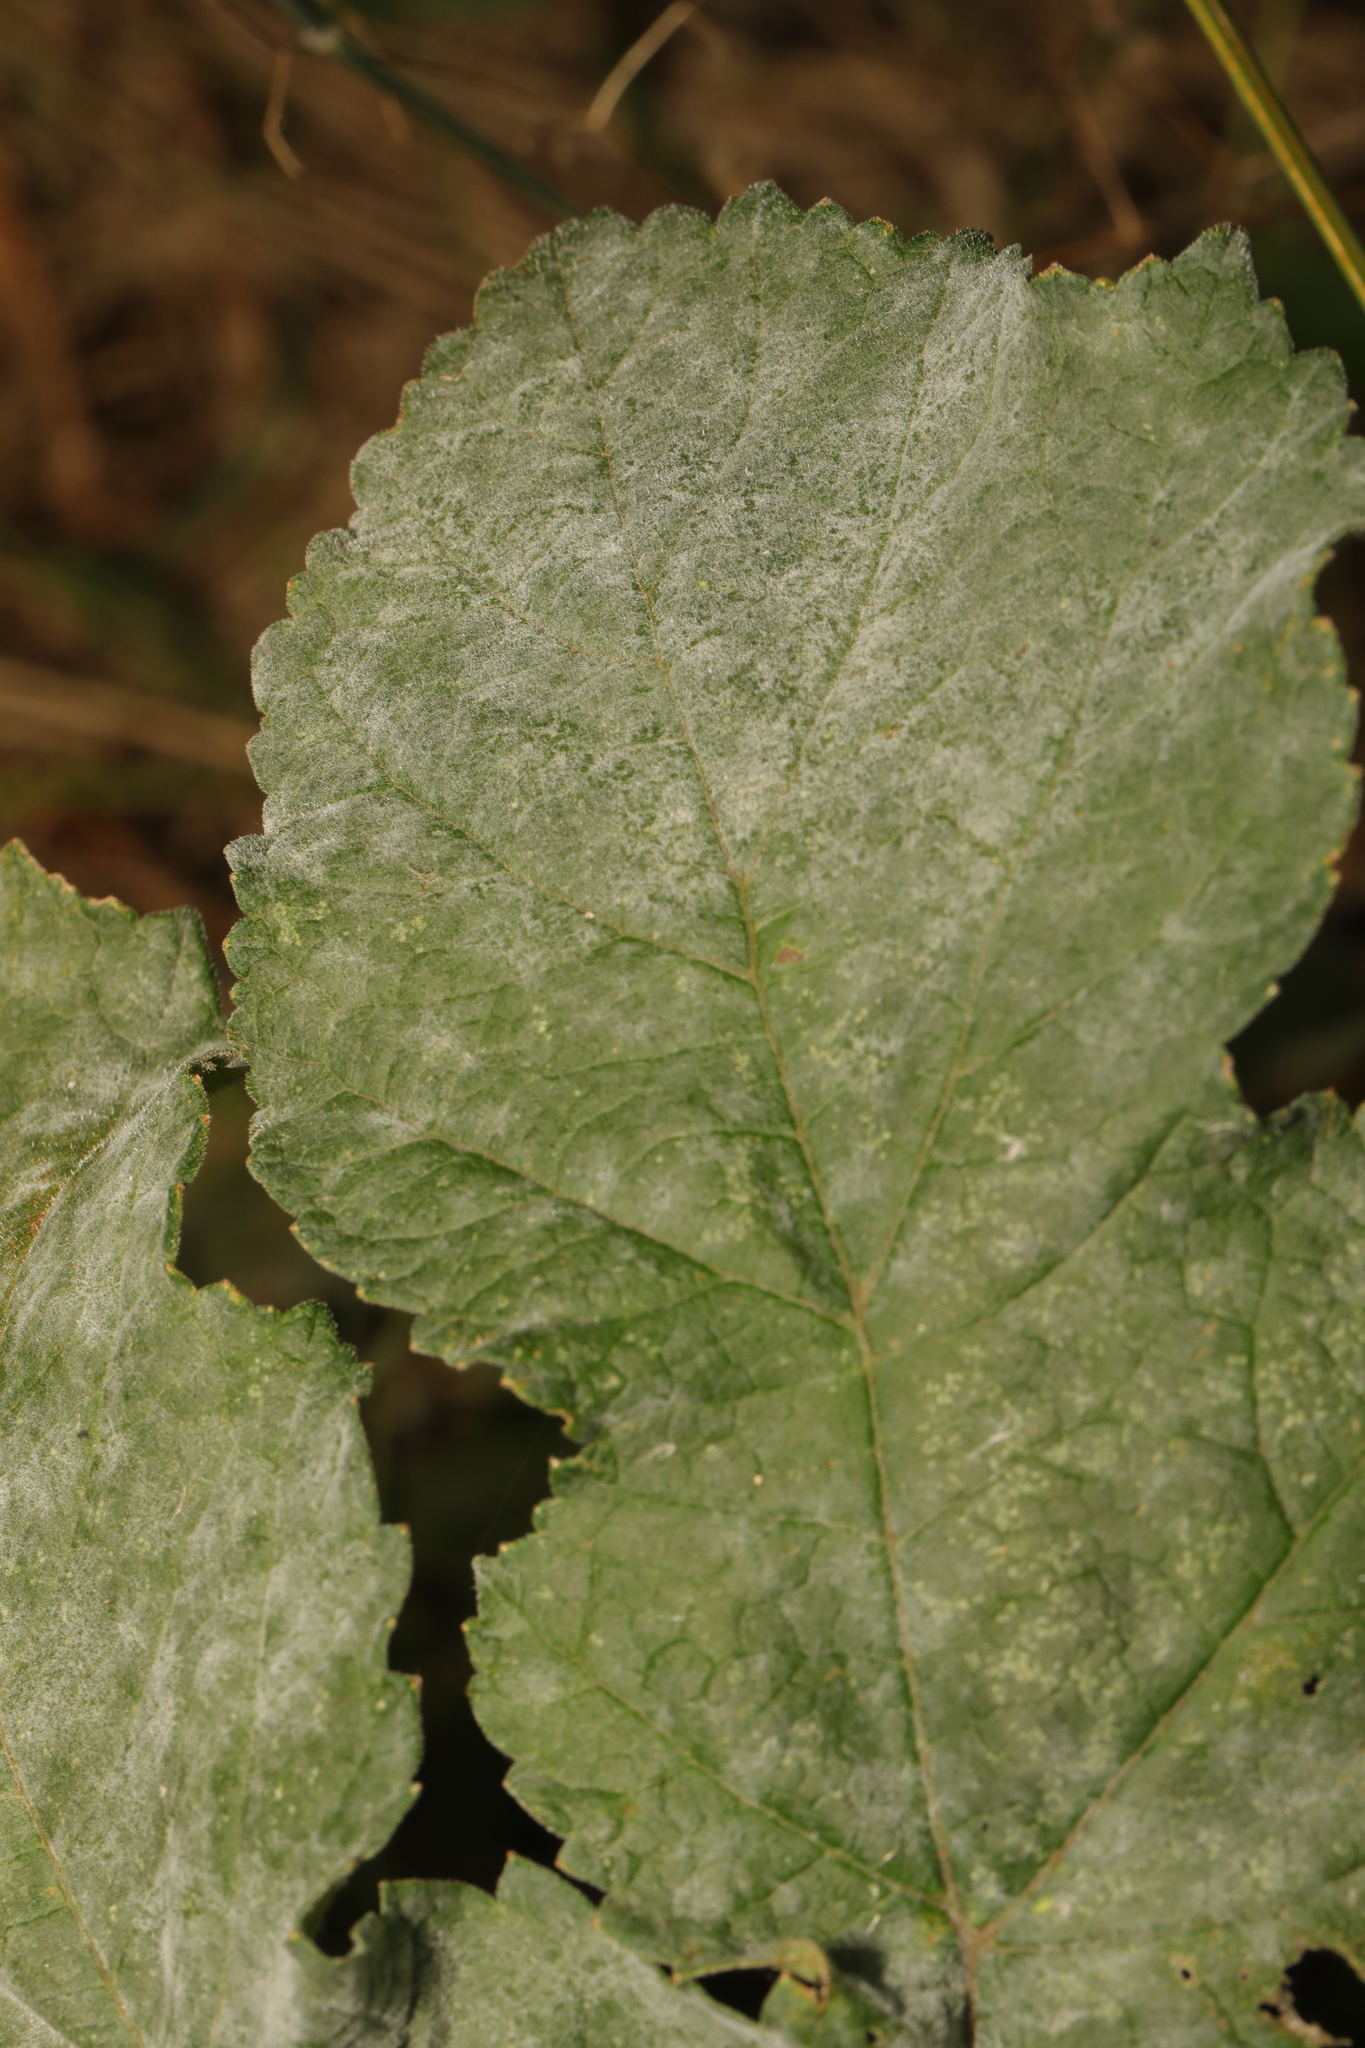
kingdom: Fungi
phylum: Ascomycota
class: Leotiomycetes
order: Helotiales
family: Erysiphaceae
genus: Erysiphe
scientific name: Erysiphe heraclei
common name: Umbellifer mildew
